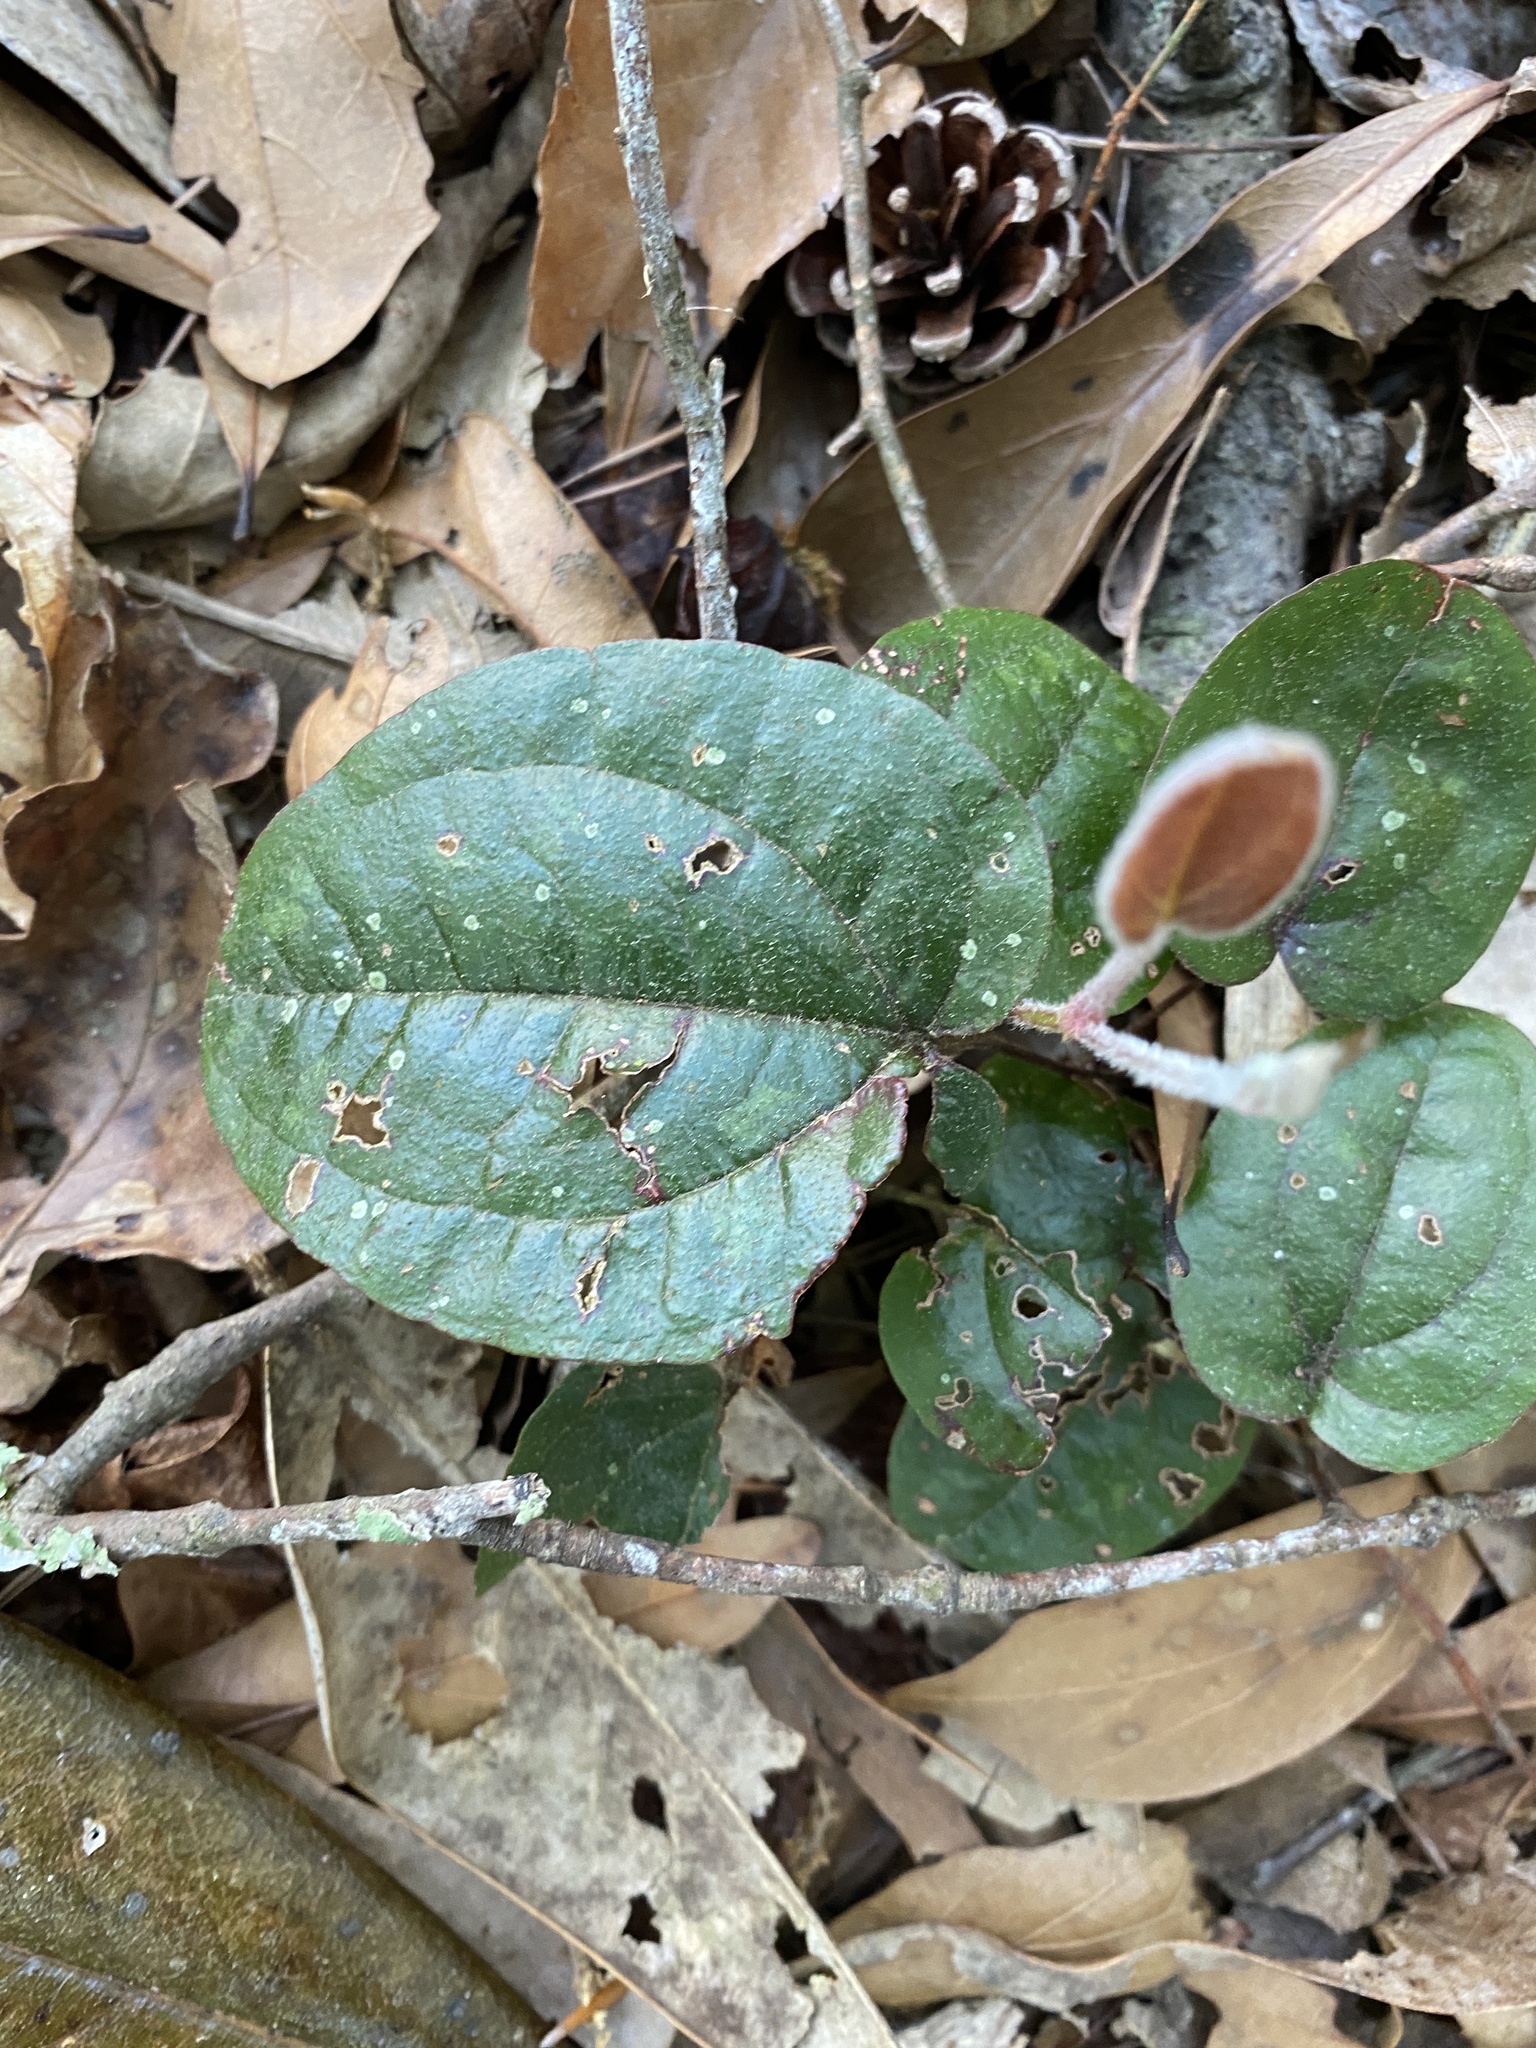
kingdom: Plantae
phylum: Tracheophyta
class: Liliopsida
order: Liliales
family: Smilacaceae
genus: Smilax
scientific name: Smilax pumila
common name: Sarsaparilla-vine
